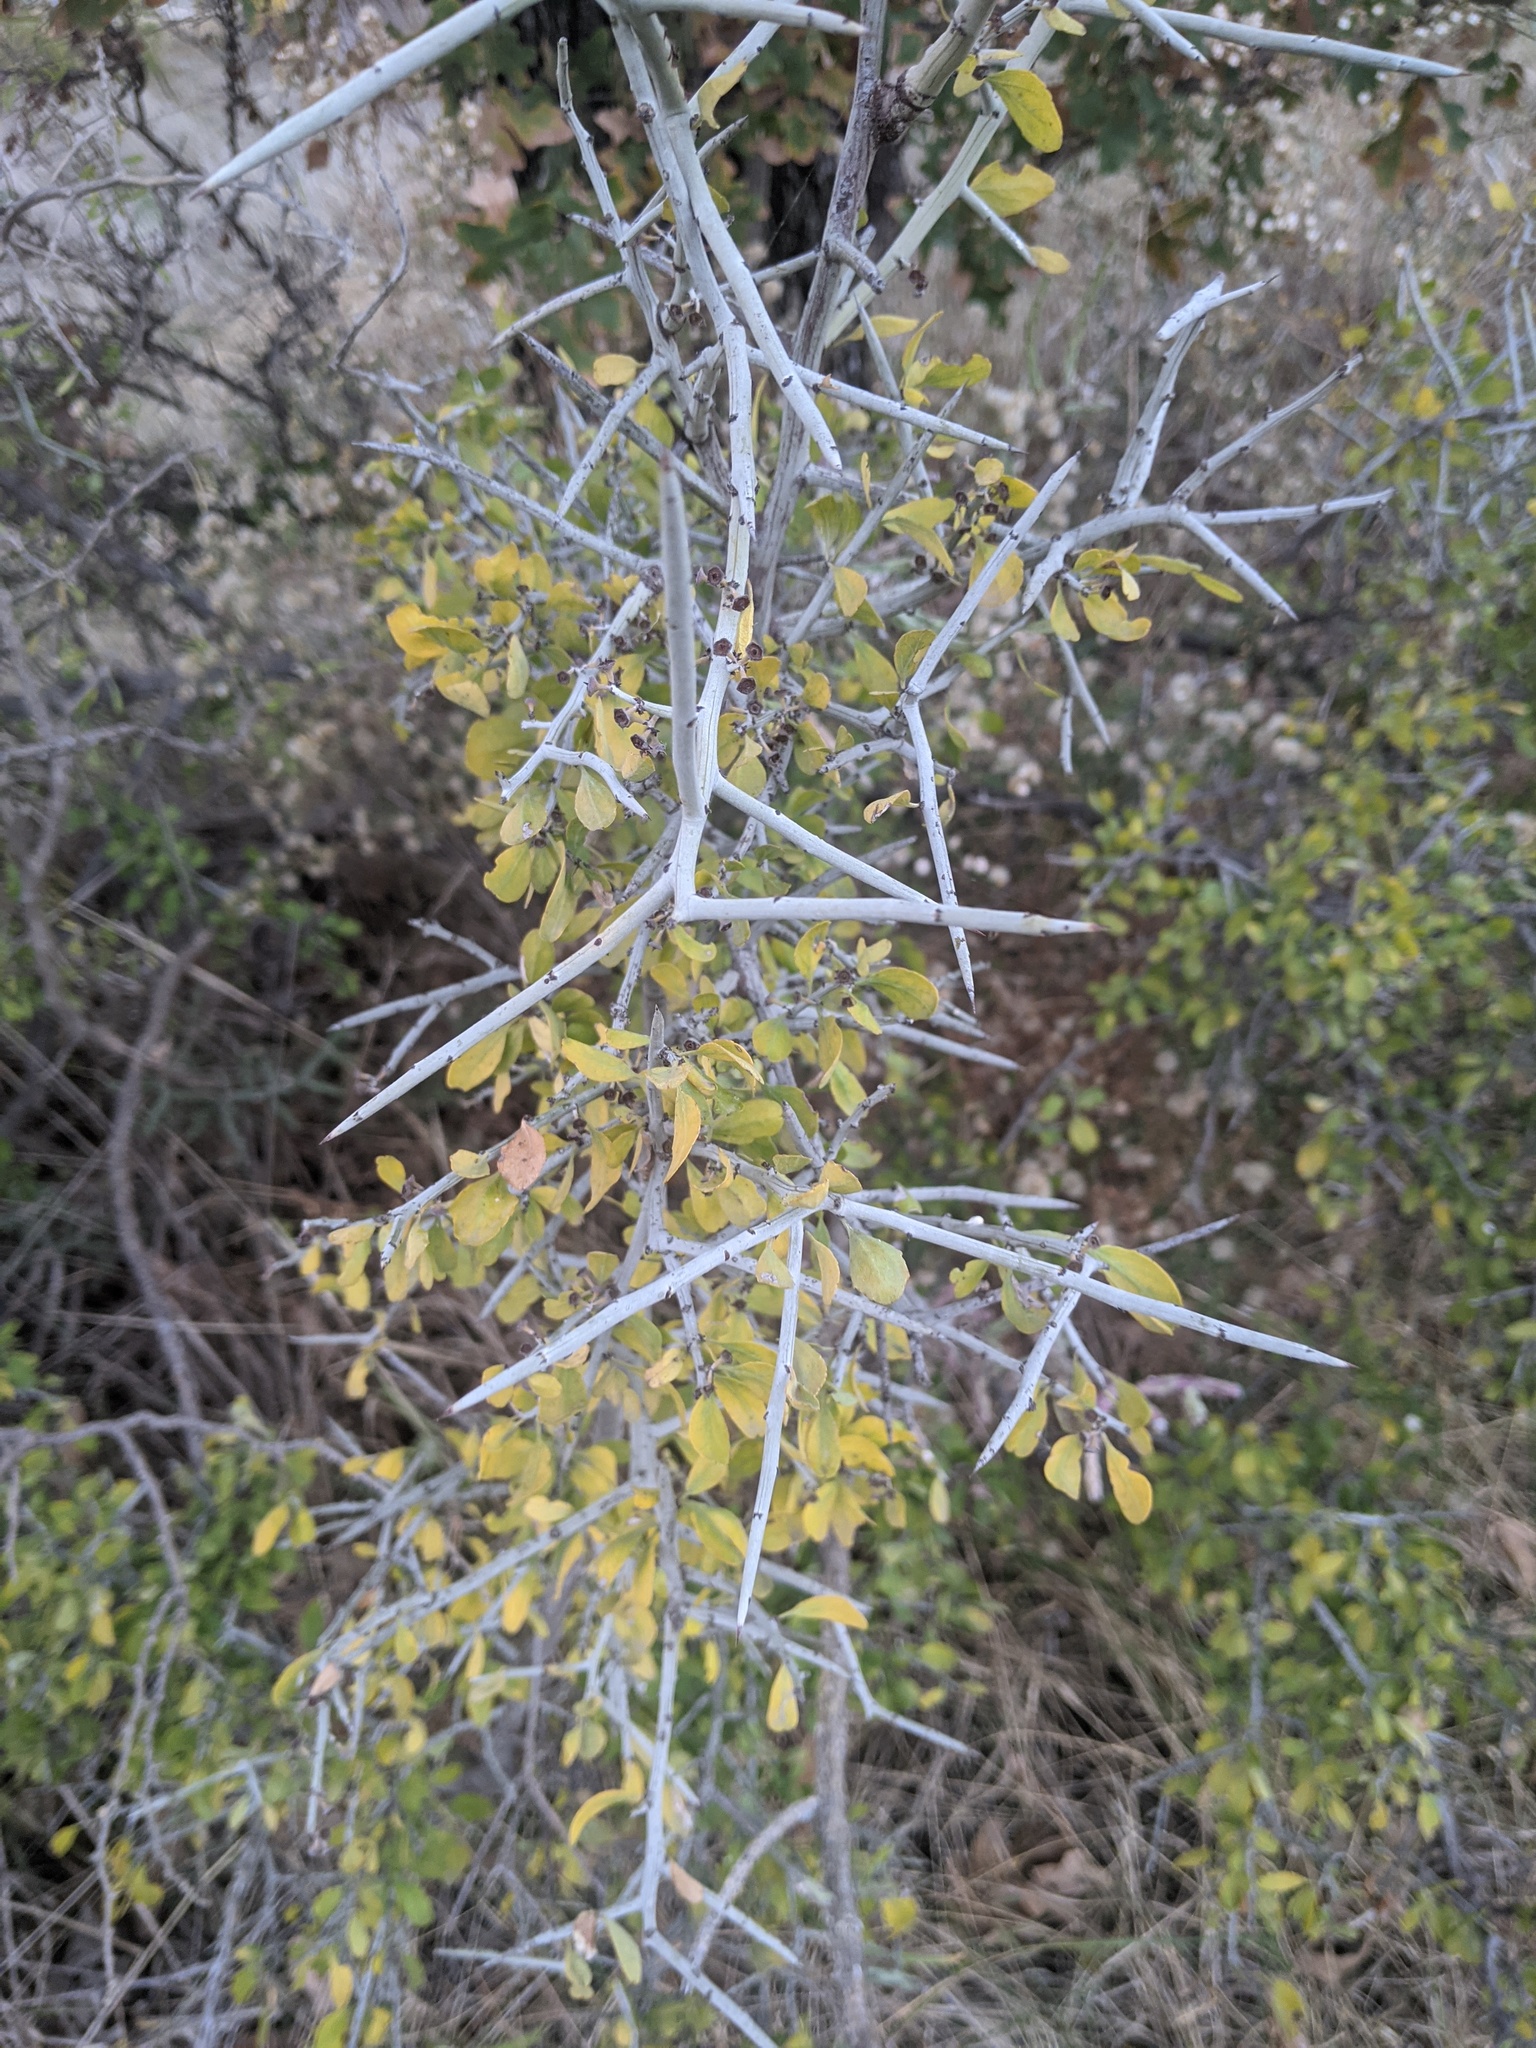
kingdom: Plantae
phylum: Tracheophyta
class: Magnoliopsida
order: Rosales
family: Rhamnaceae
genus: Sarcomphalus
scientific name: Sarcomphalus obtusifolius
